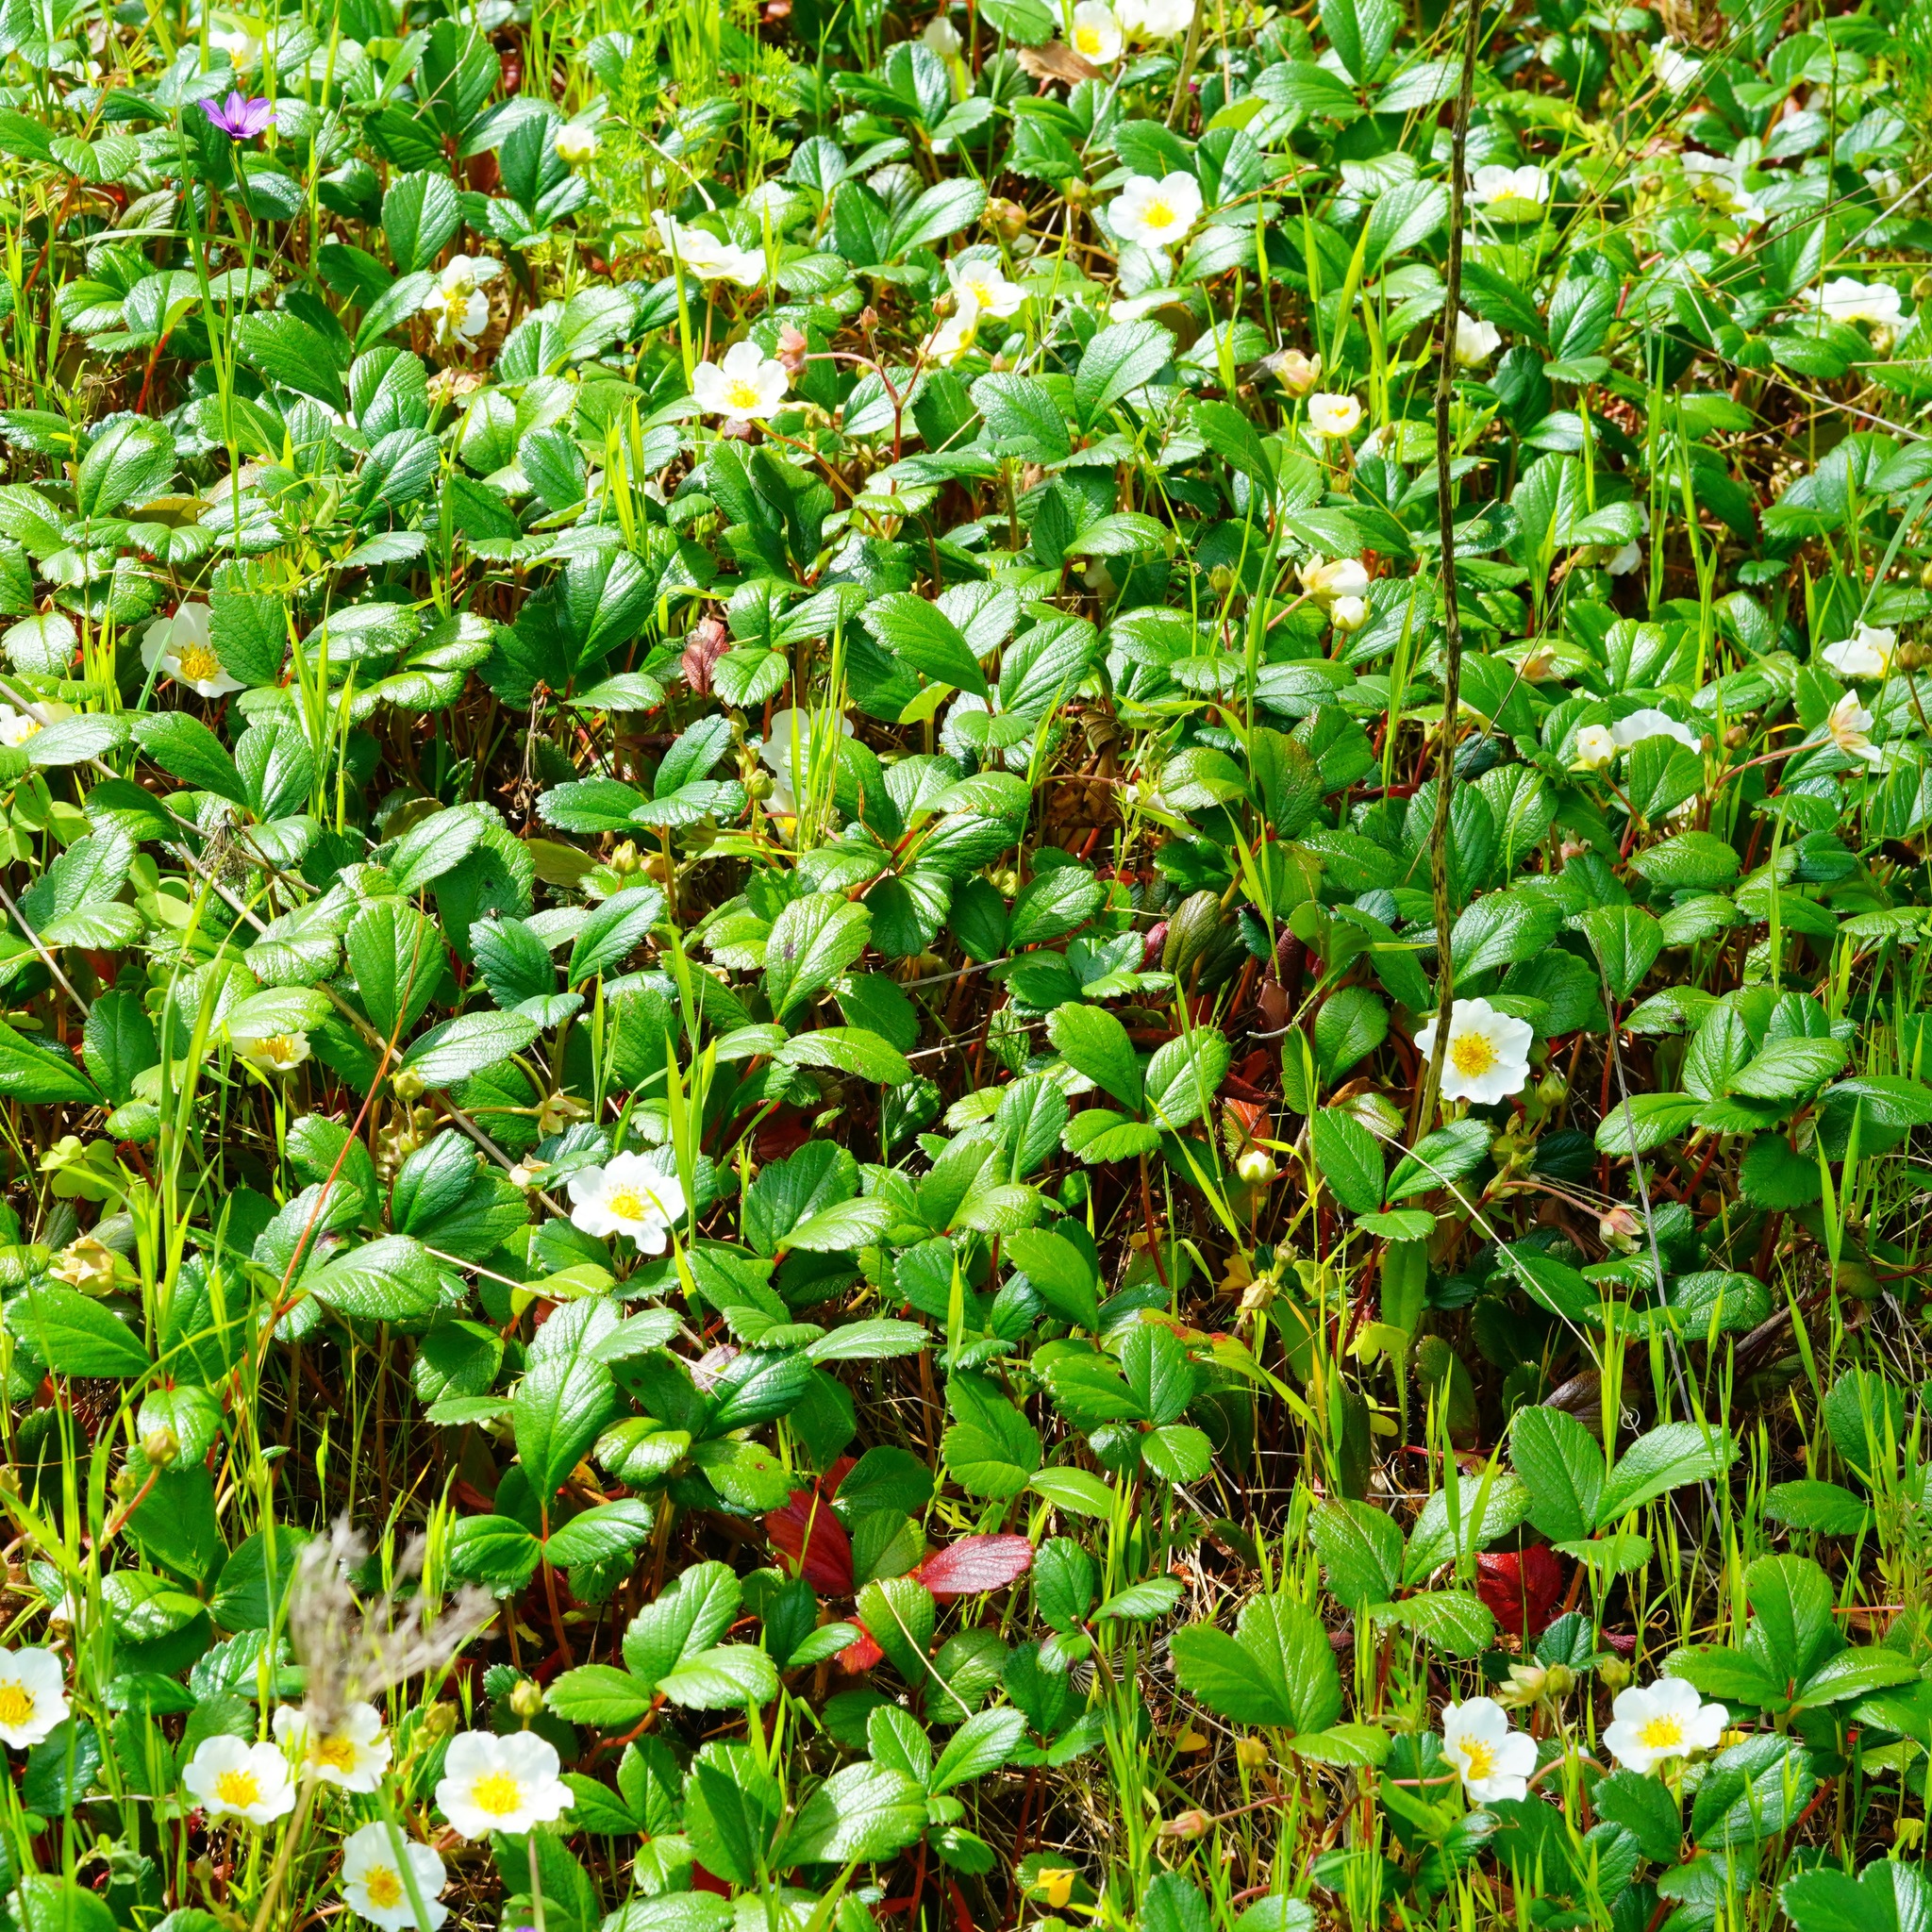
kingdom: Plantae
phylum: Tracheophyta
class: Magnoliopsida
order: Rosales
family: Rosaceae
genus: Fragaria
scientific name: Fragaria chiloensis
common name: Beach strawberry
